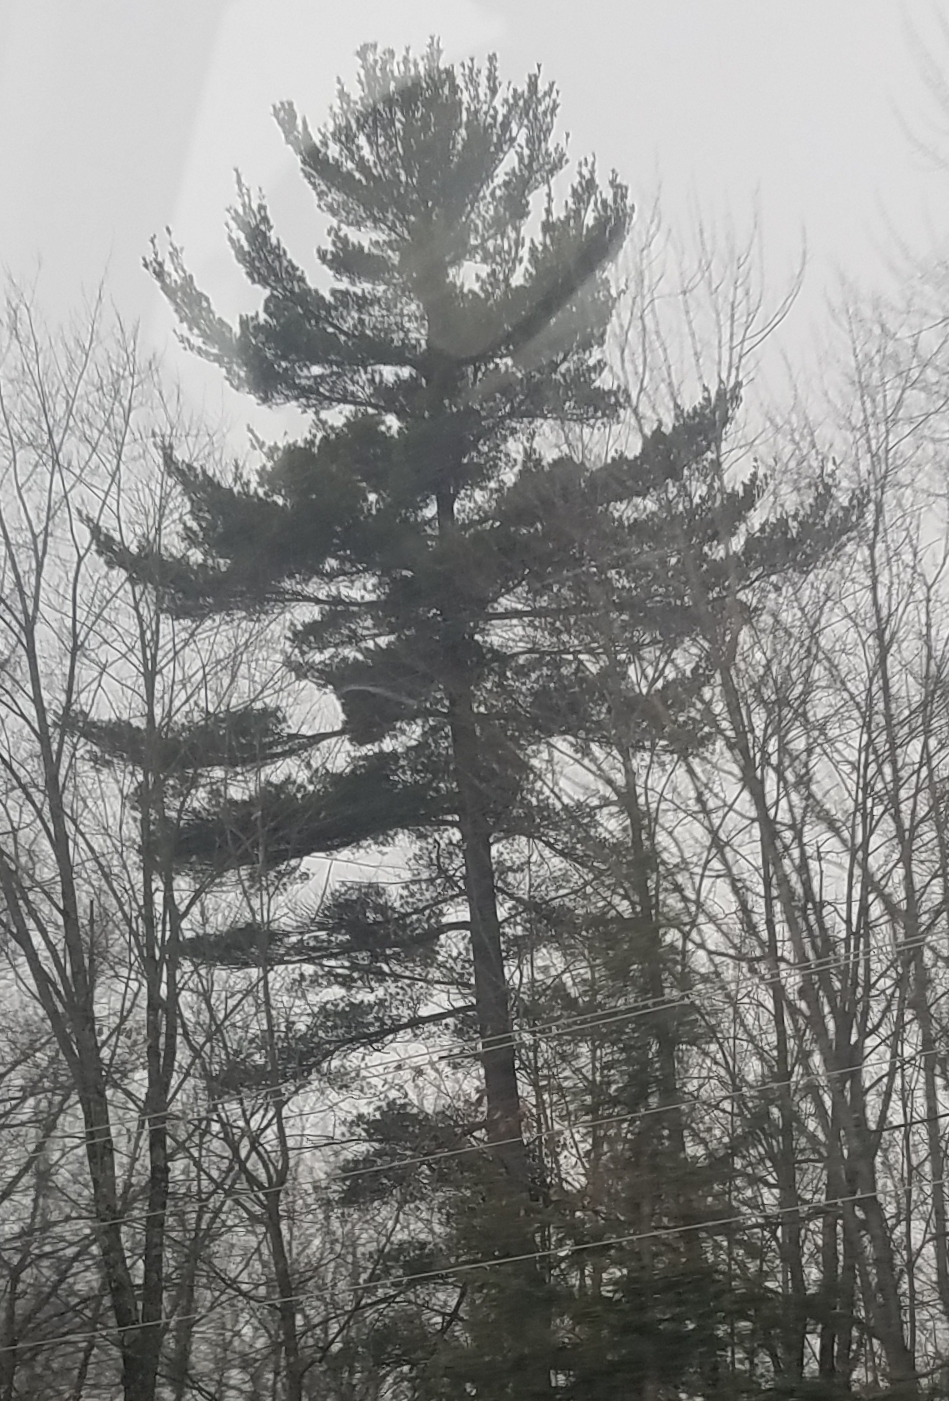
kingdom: Plantae
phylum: Tracheophyta
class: Pinopsida
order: Pinales
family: Pinaceae
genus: Pinus
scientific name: Pinus strobus
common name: Weymouth pine
